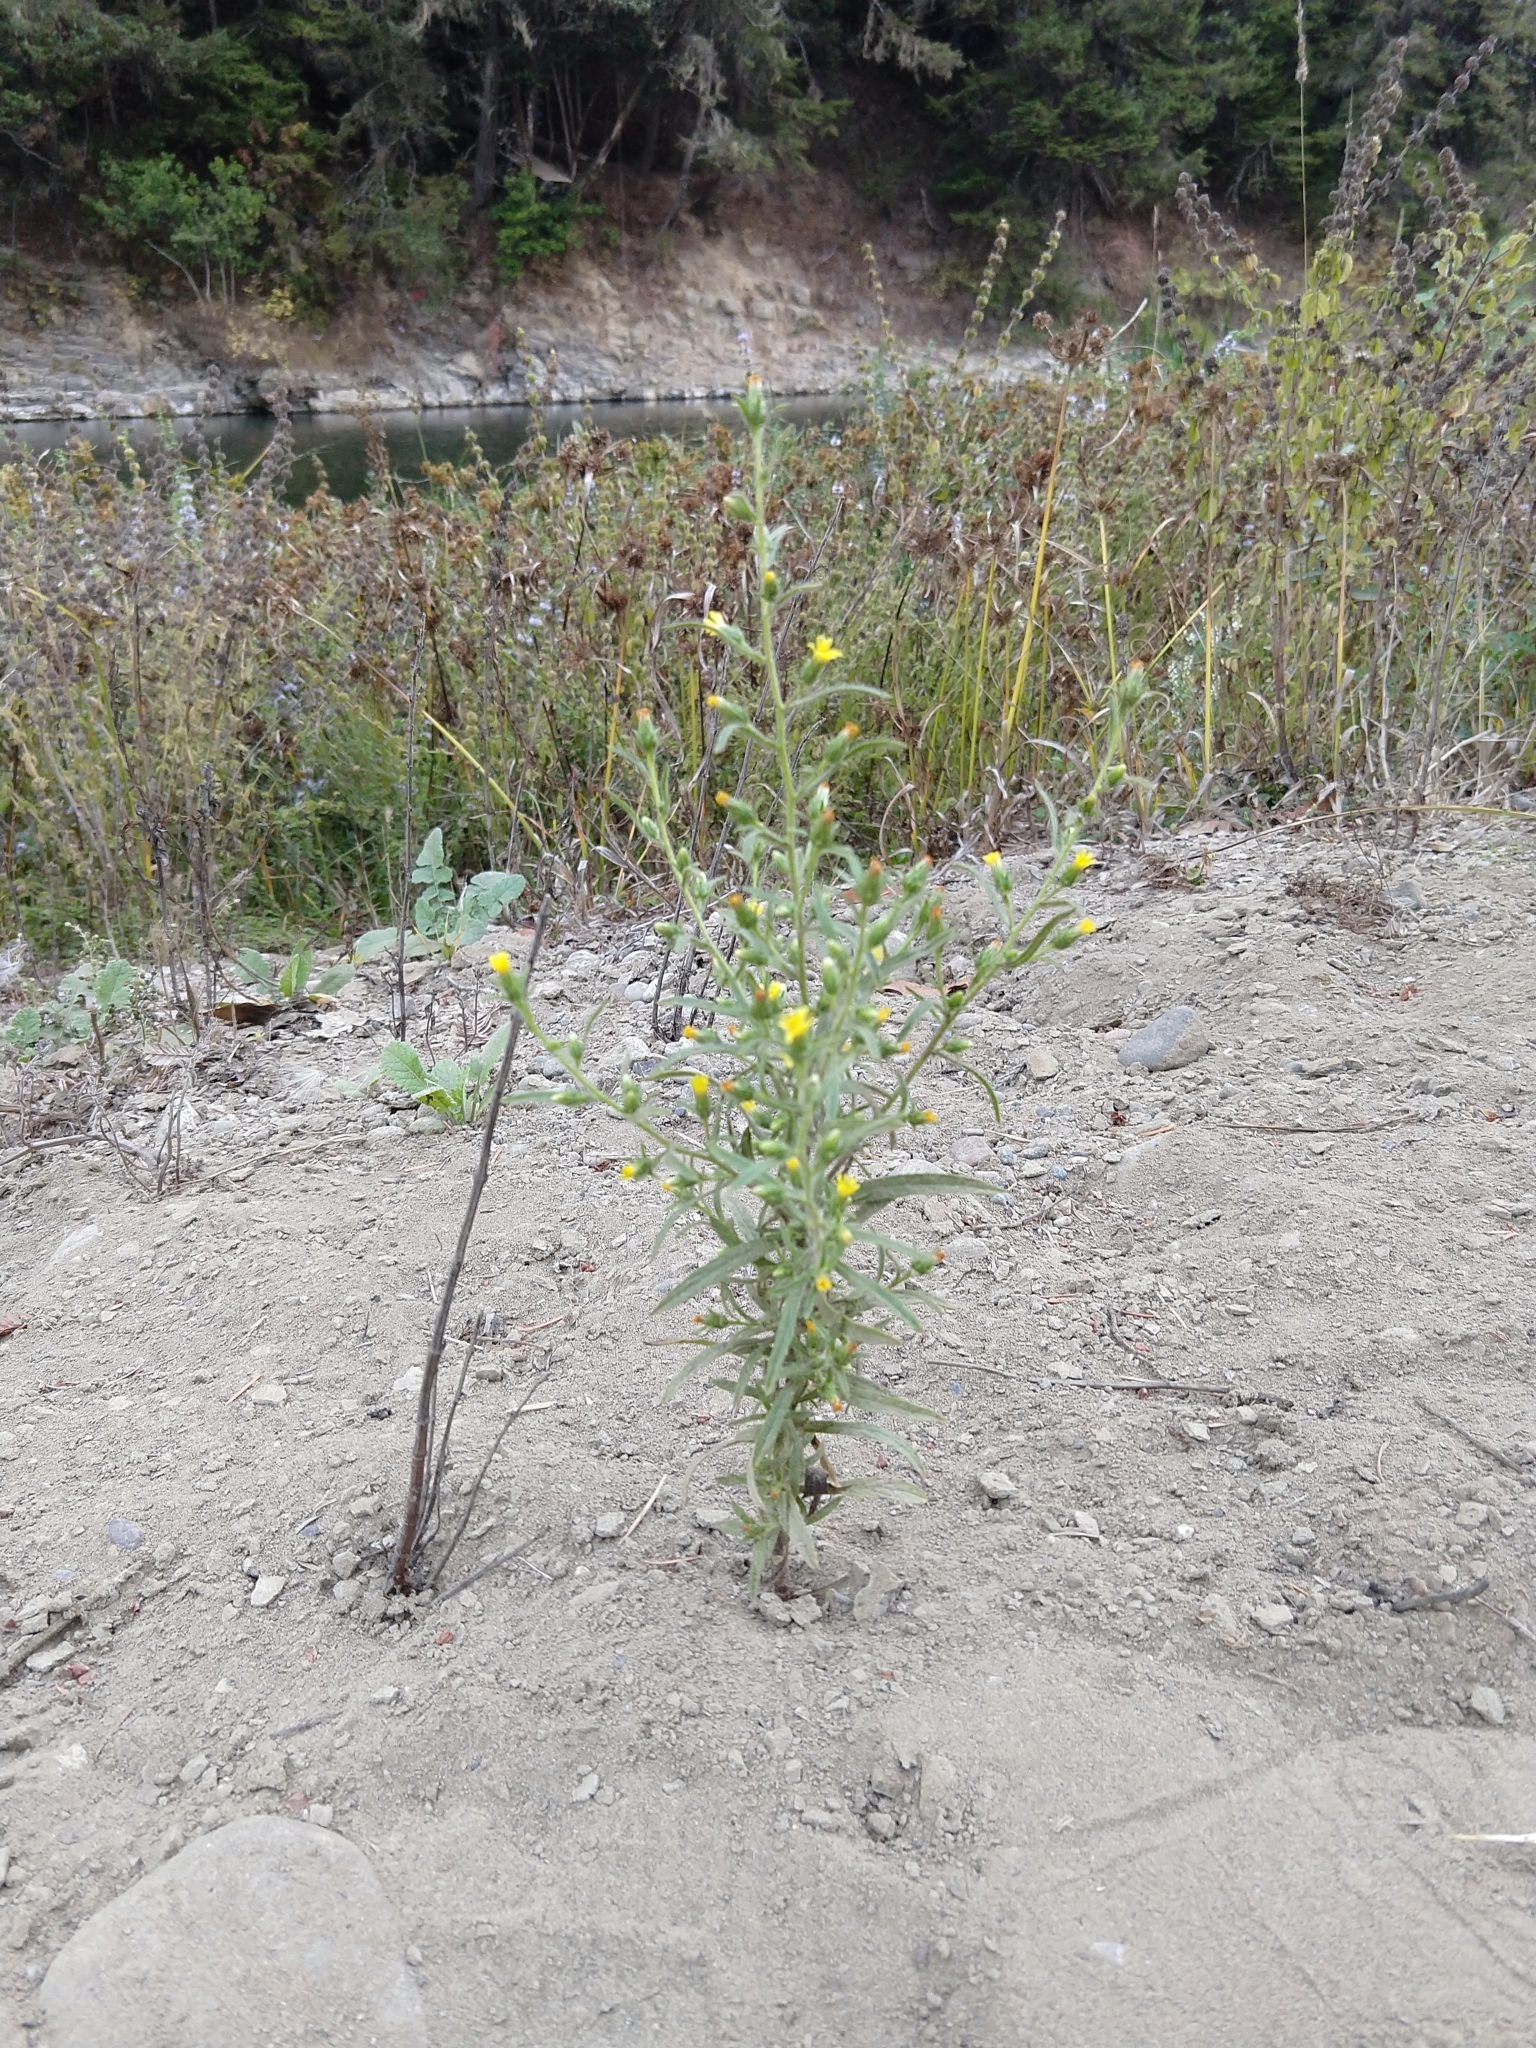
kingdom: Plantae
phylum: Tracheophyta
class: Magnoliopsida
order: Asterales
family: Asteraceae
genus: Dittrichia
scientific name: Dittrichia graveolens
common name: Stinking fleabane
